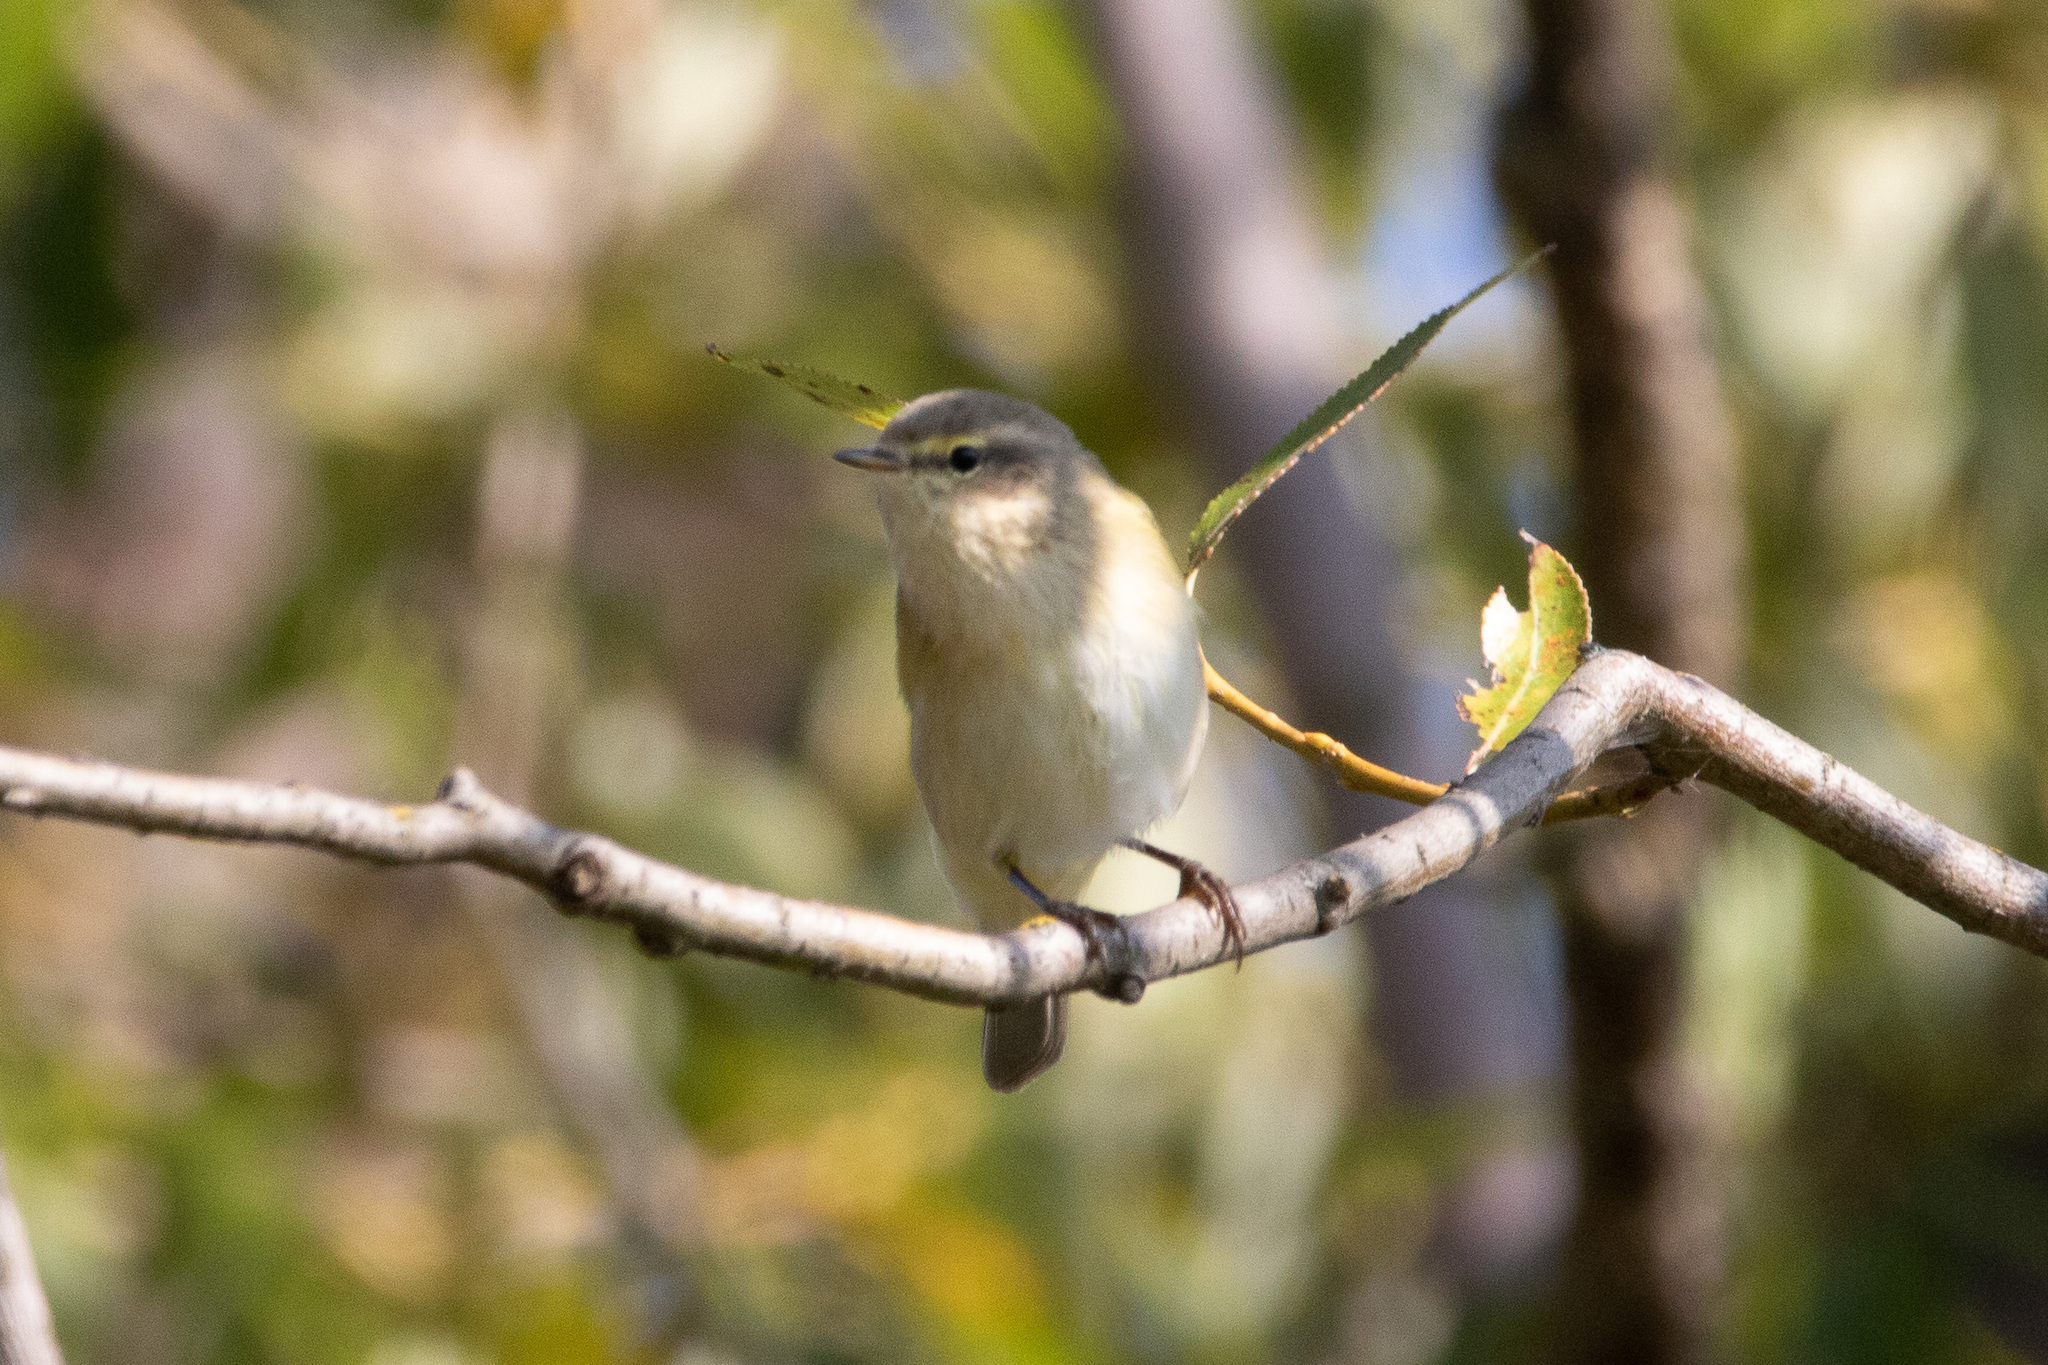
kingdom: Animalia
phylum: Chordata
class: Aves
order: Passeriformes
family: Phylloscopidae
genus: Phylloscopus
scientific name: Phylloscopus collybita
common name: Common chiffchaff
